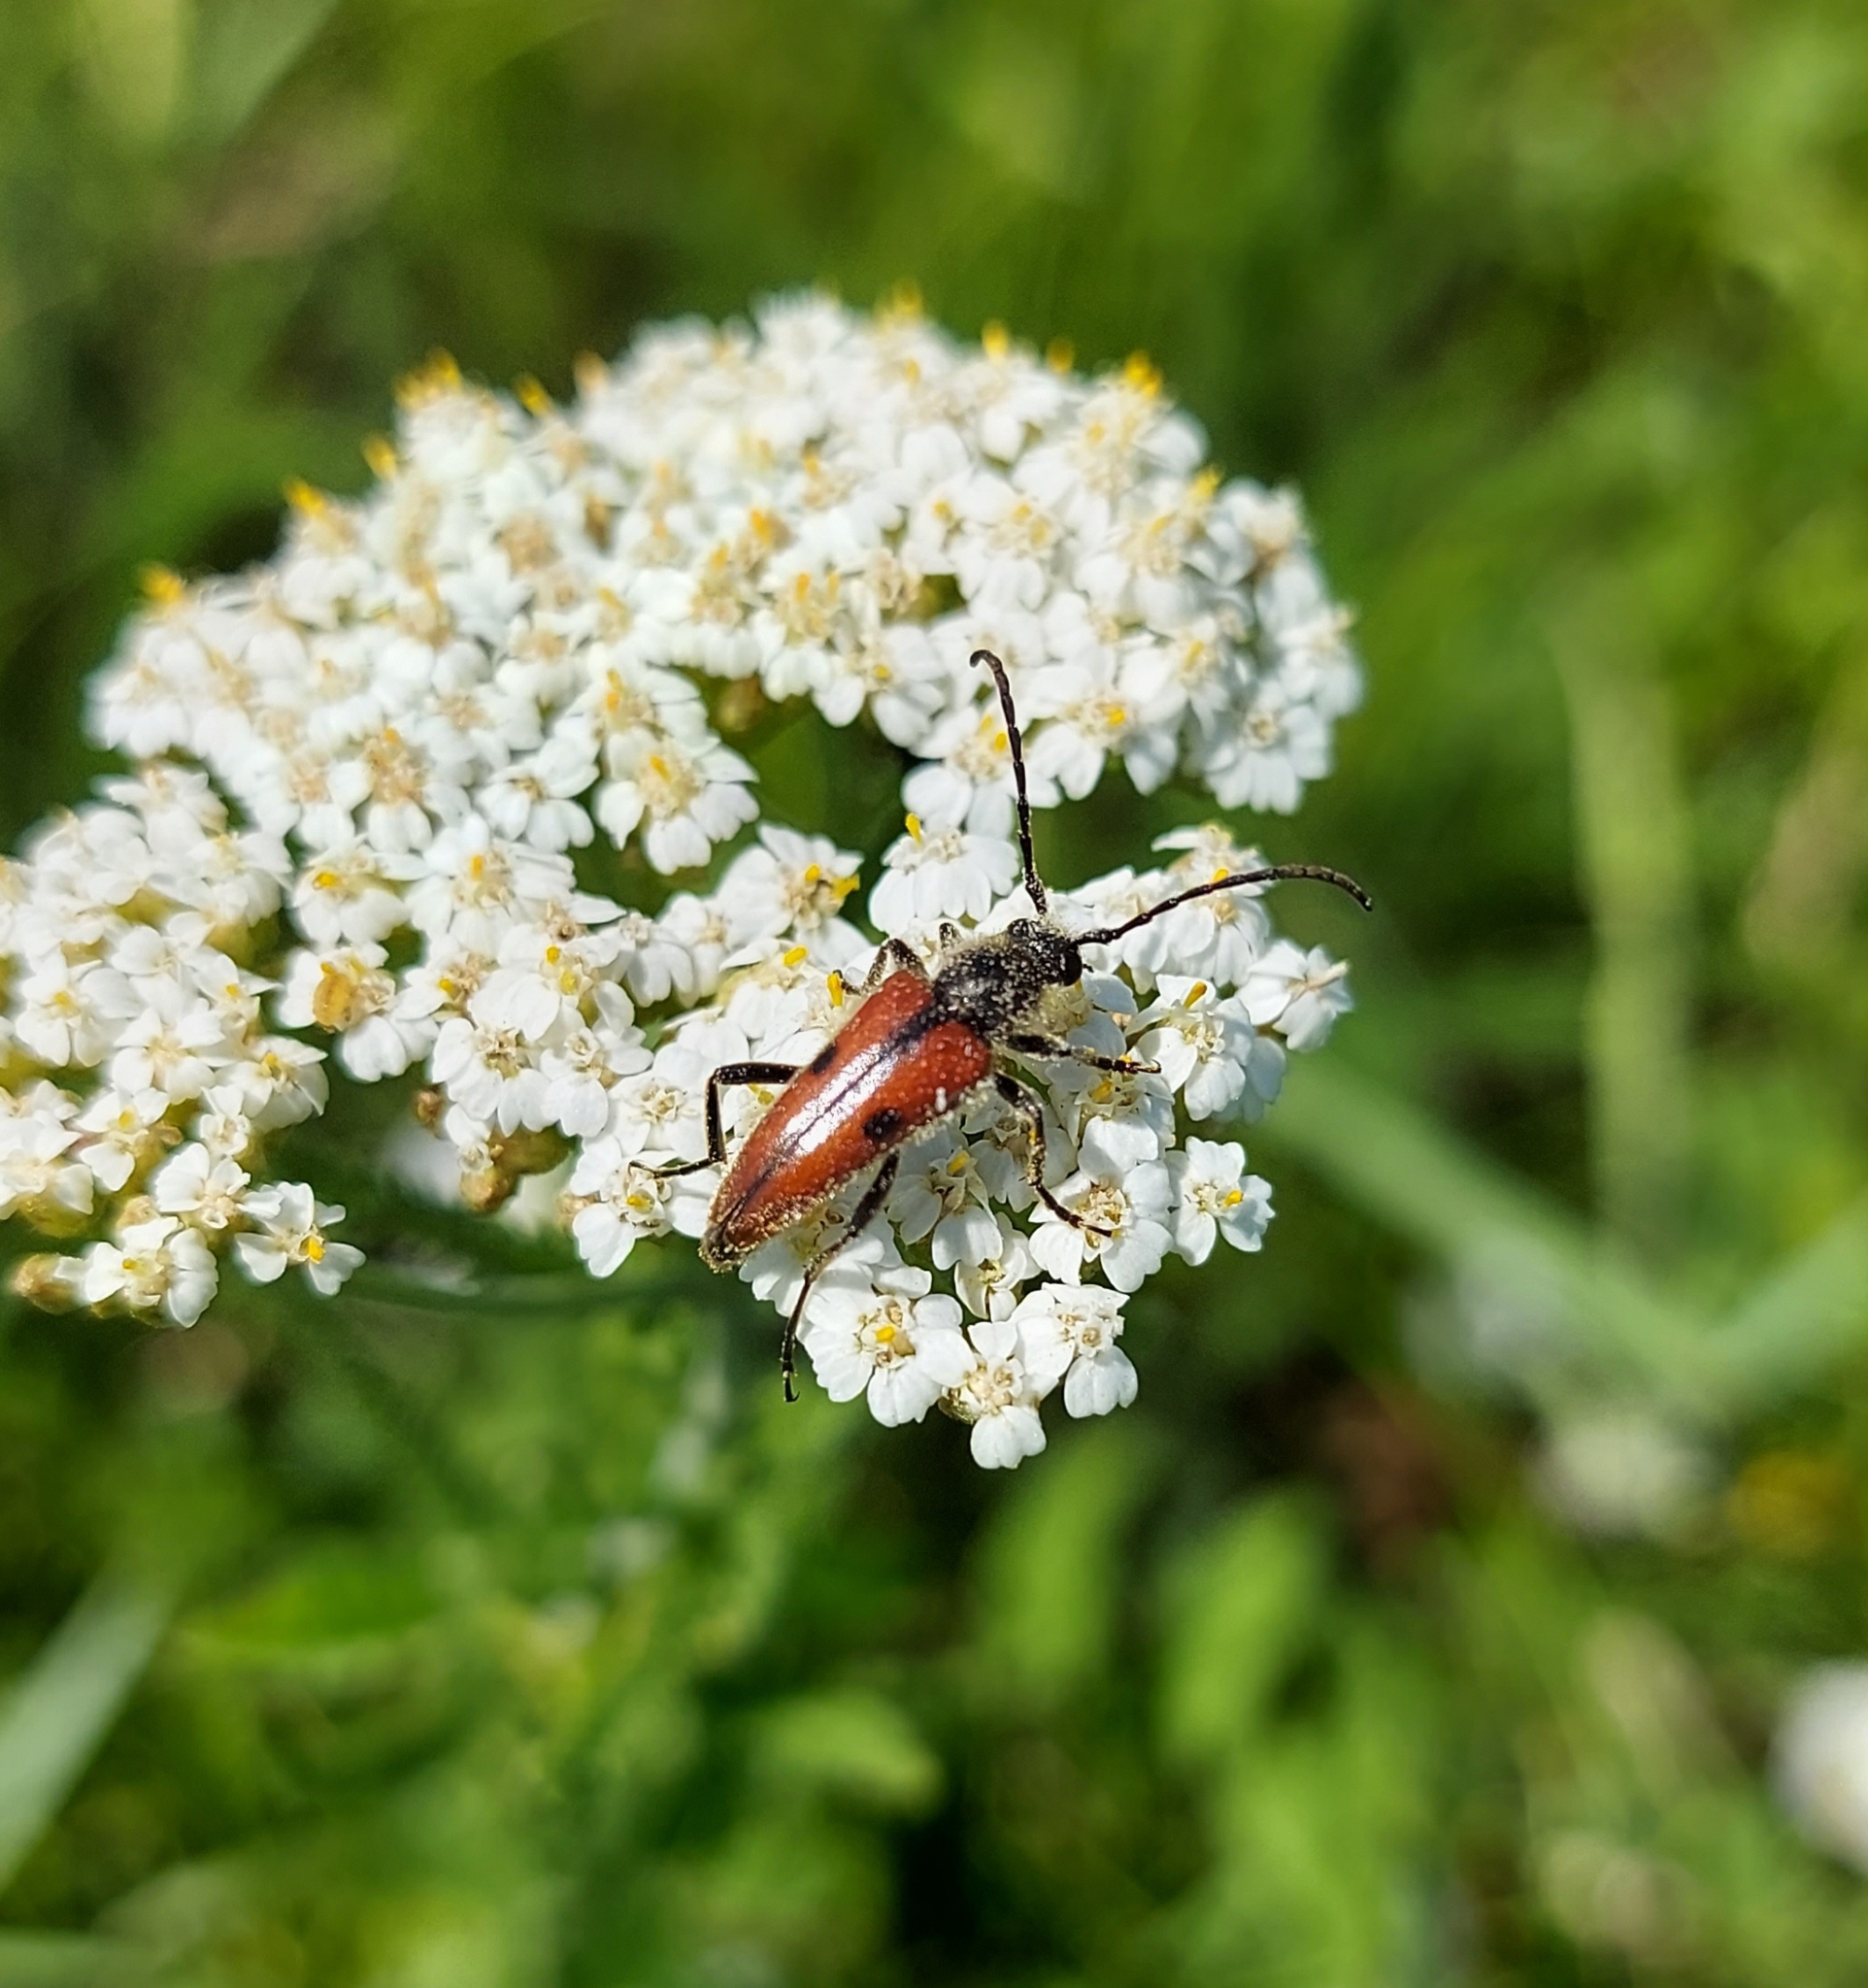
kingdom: Animalia
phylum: Arthropoda
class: Insecta
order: Coleoptera
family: Cerambycidae
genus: Vadonia
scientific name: Vadonia unipunctata
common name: Long-horned beetle
